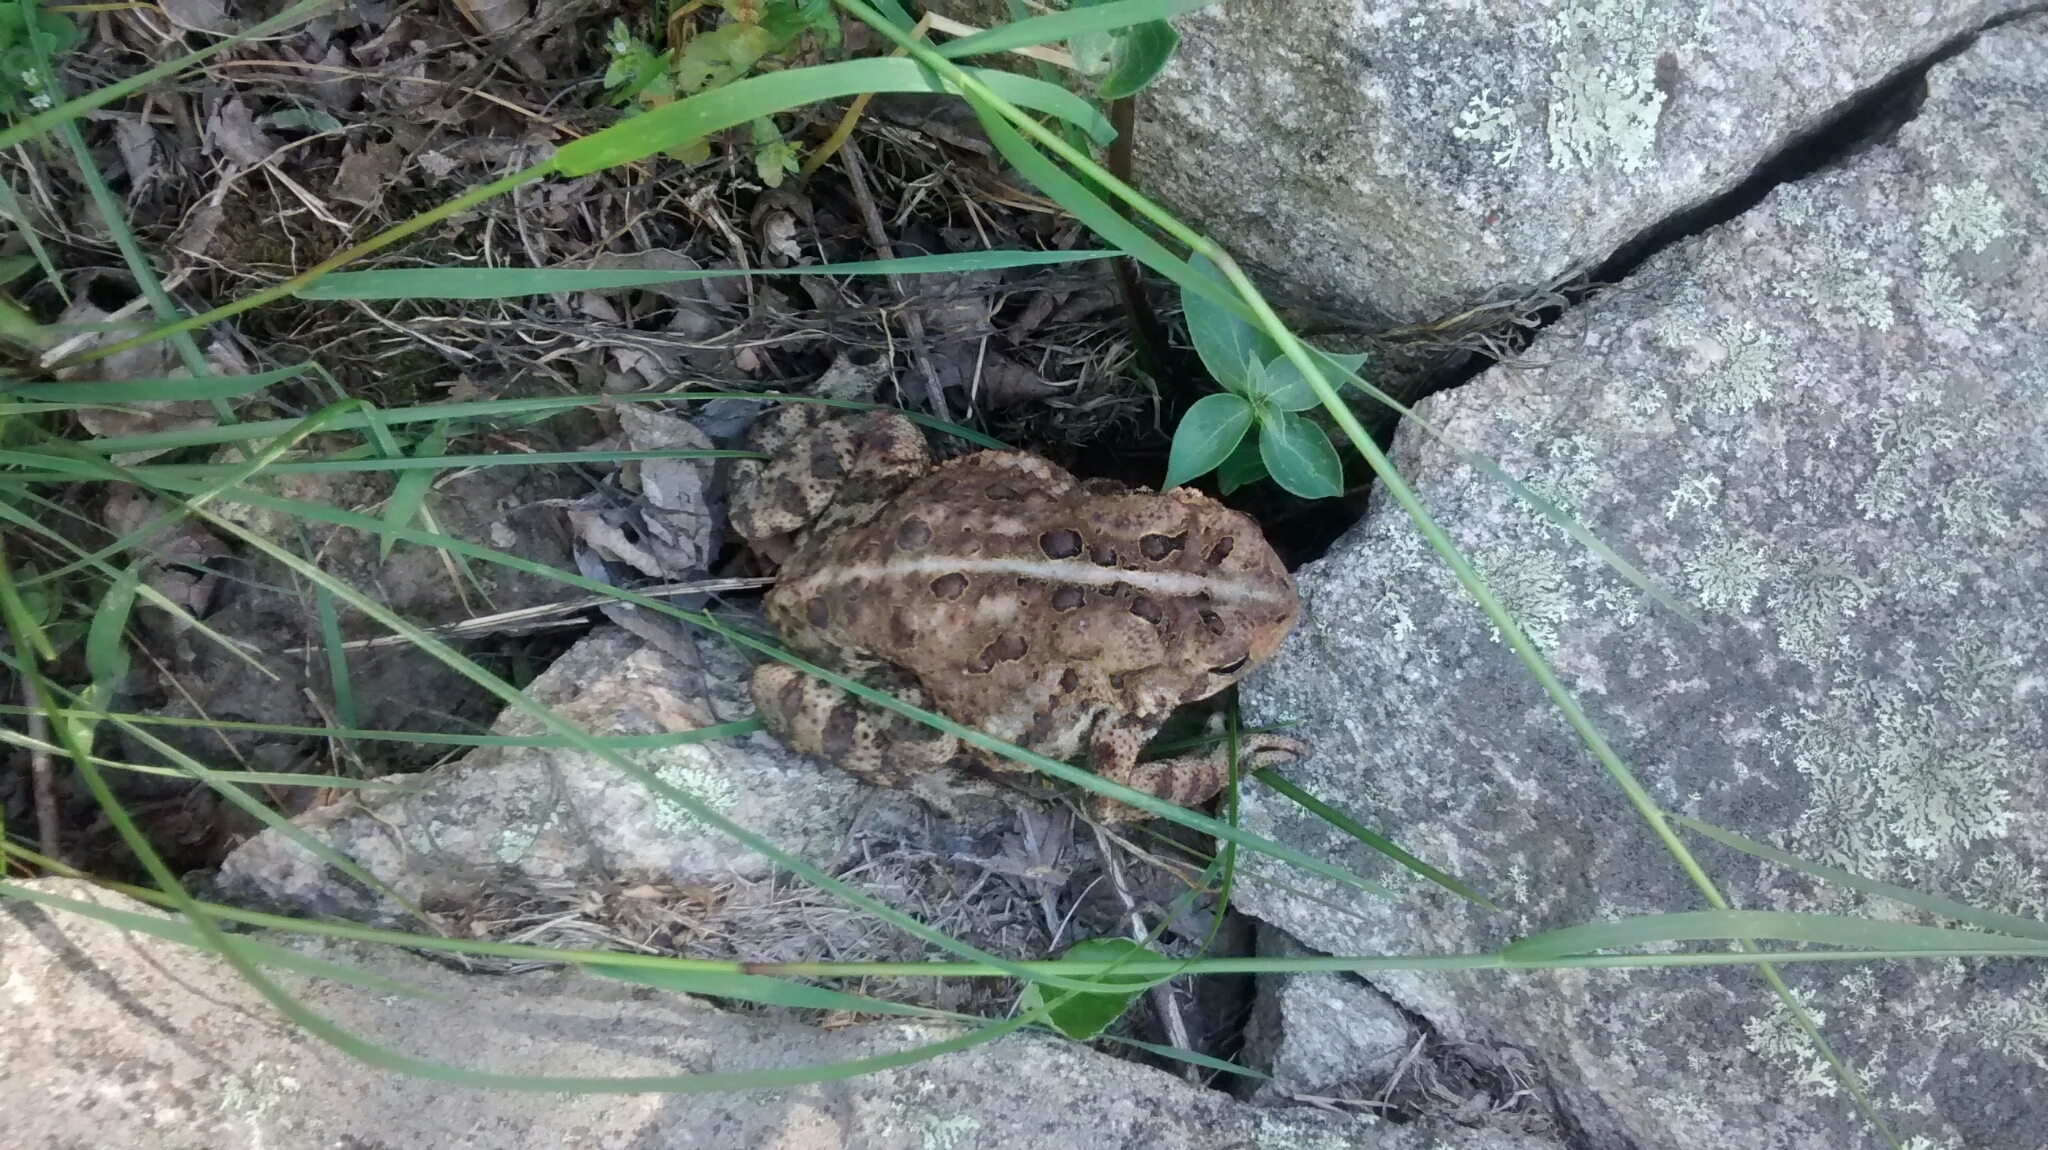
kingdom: Animalia
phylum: Chordata
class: Amphibia
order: Anura
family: Bufonidae
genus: Anaxyrus
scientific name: Anaxyrus americanus
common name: American toad
